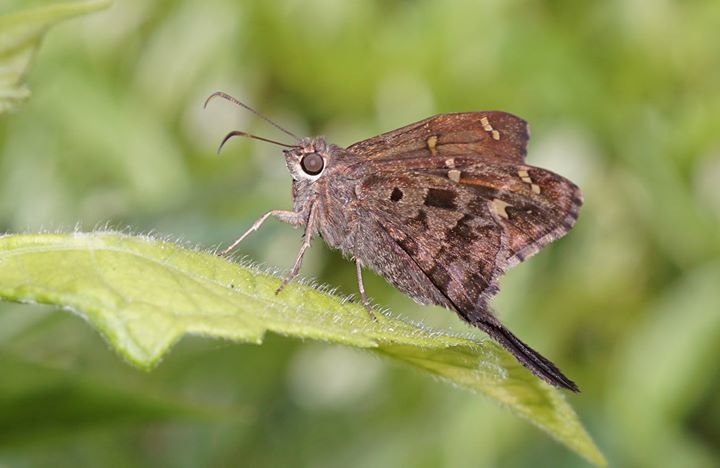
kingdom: Animalia
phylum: Arthropoda
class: Insecta
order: Lepidoptera
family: Hesperiidae
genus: Thorybes
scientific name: Thorybes
